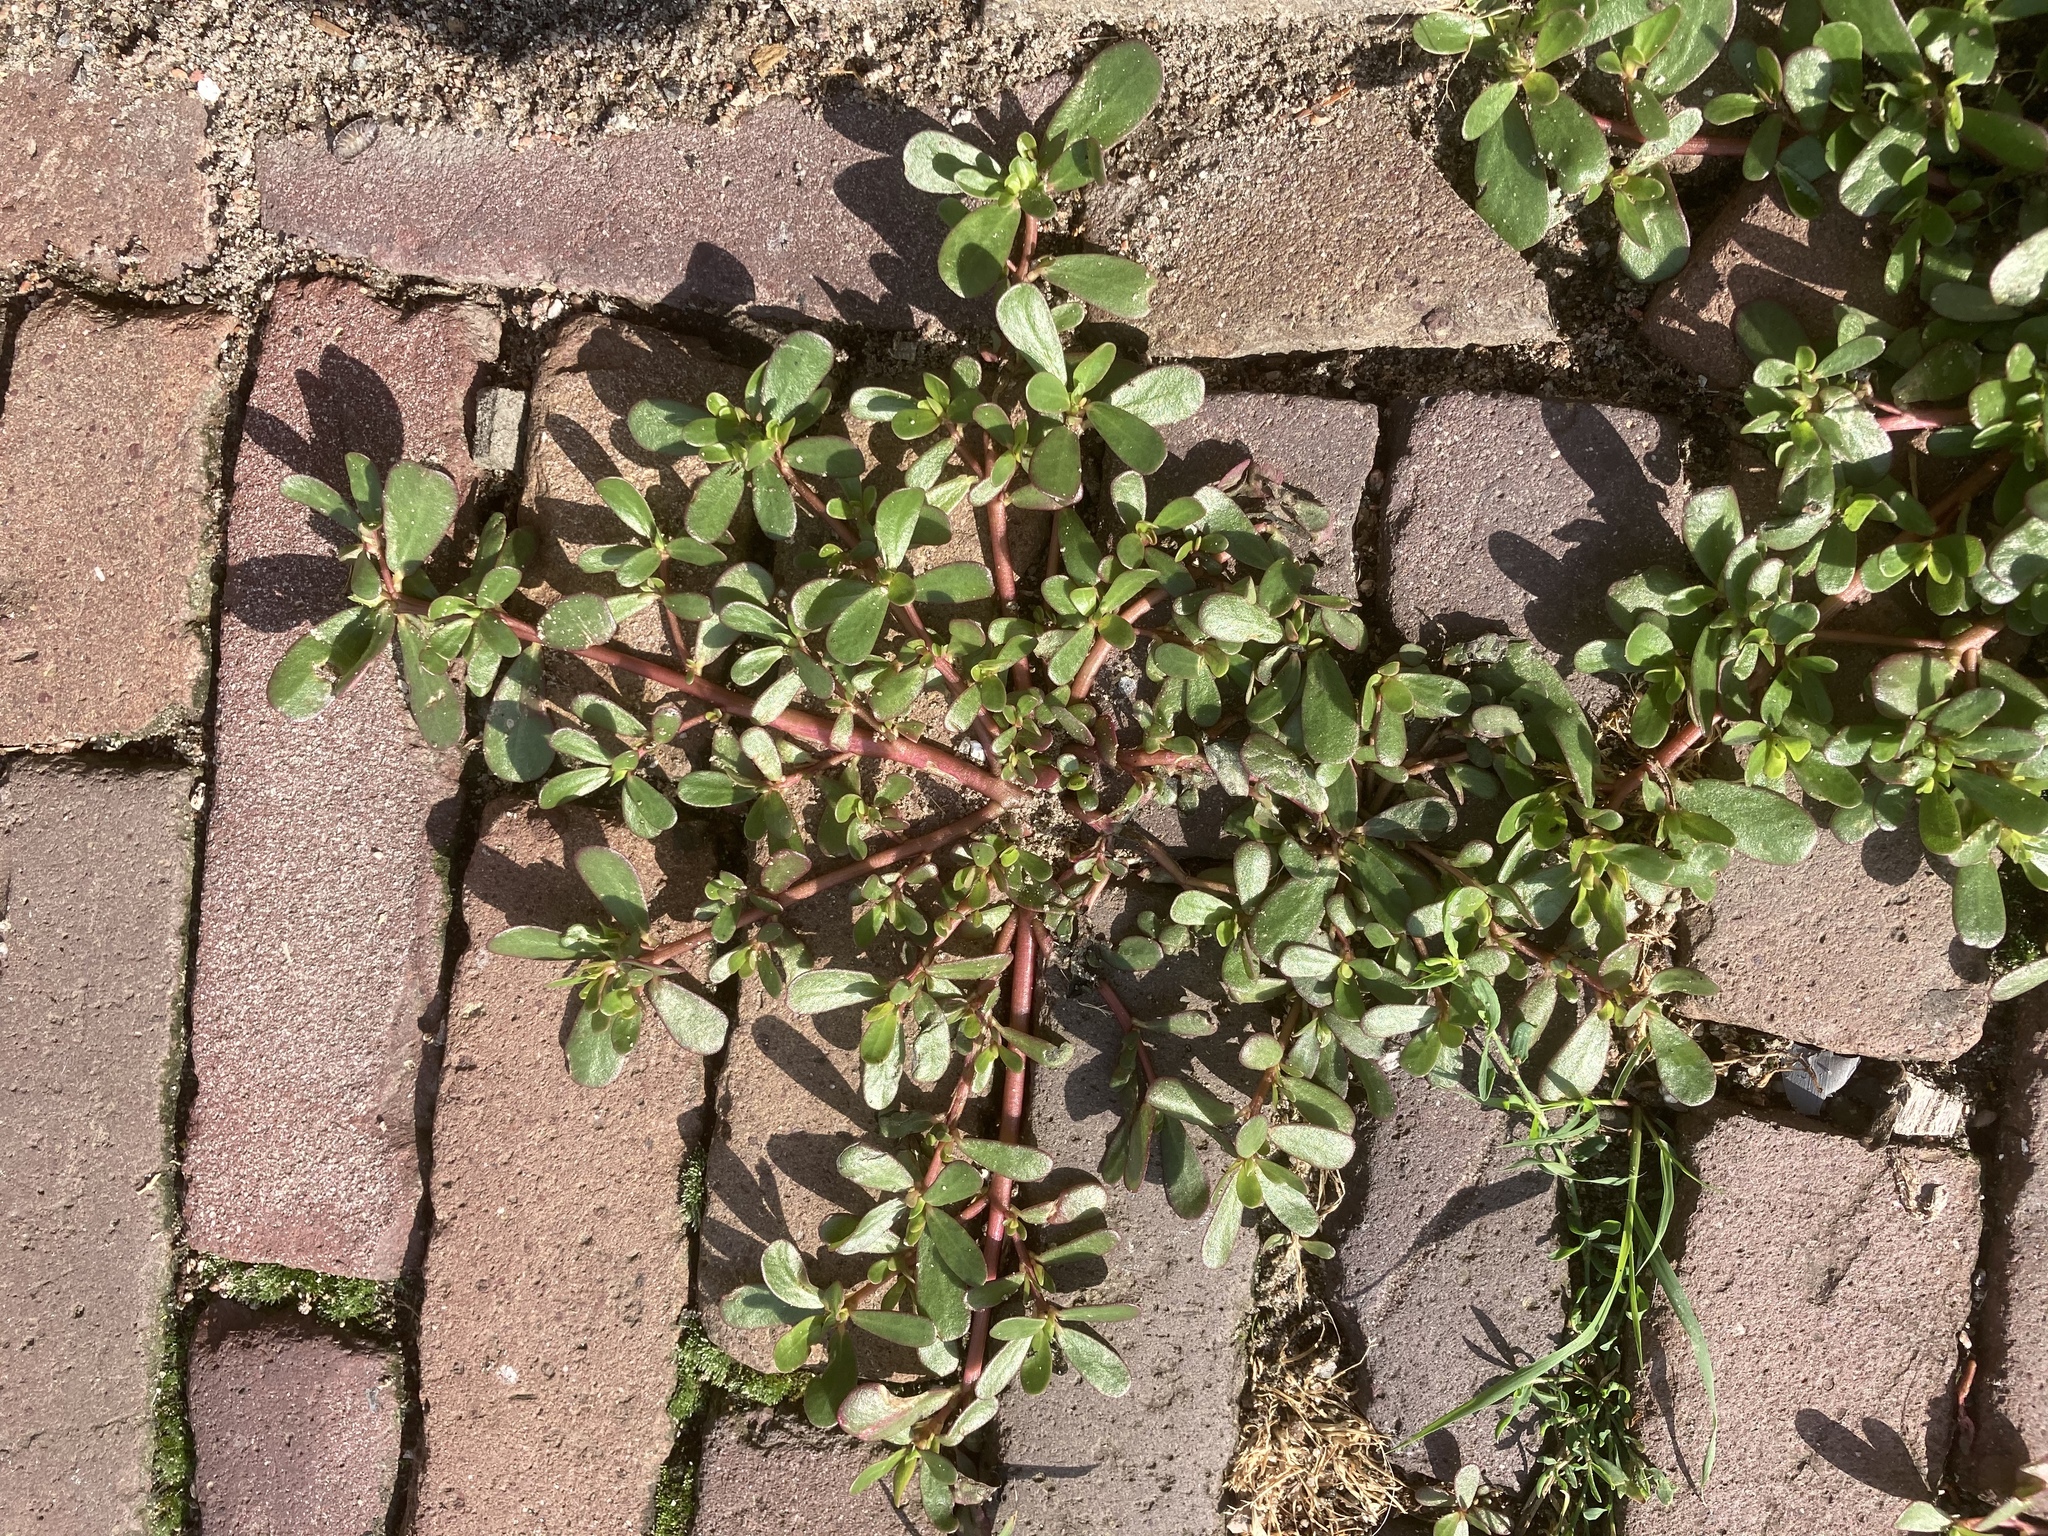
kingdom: Plantae
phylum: Tracheophyta
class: Magnoliopsida
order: Caryophyllales
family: Portulacaceae
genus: Portulaca
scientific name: Portulaca oleracea
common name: Common purslane
